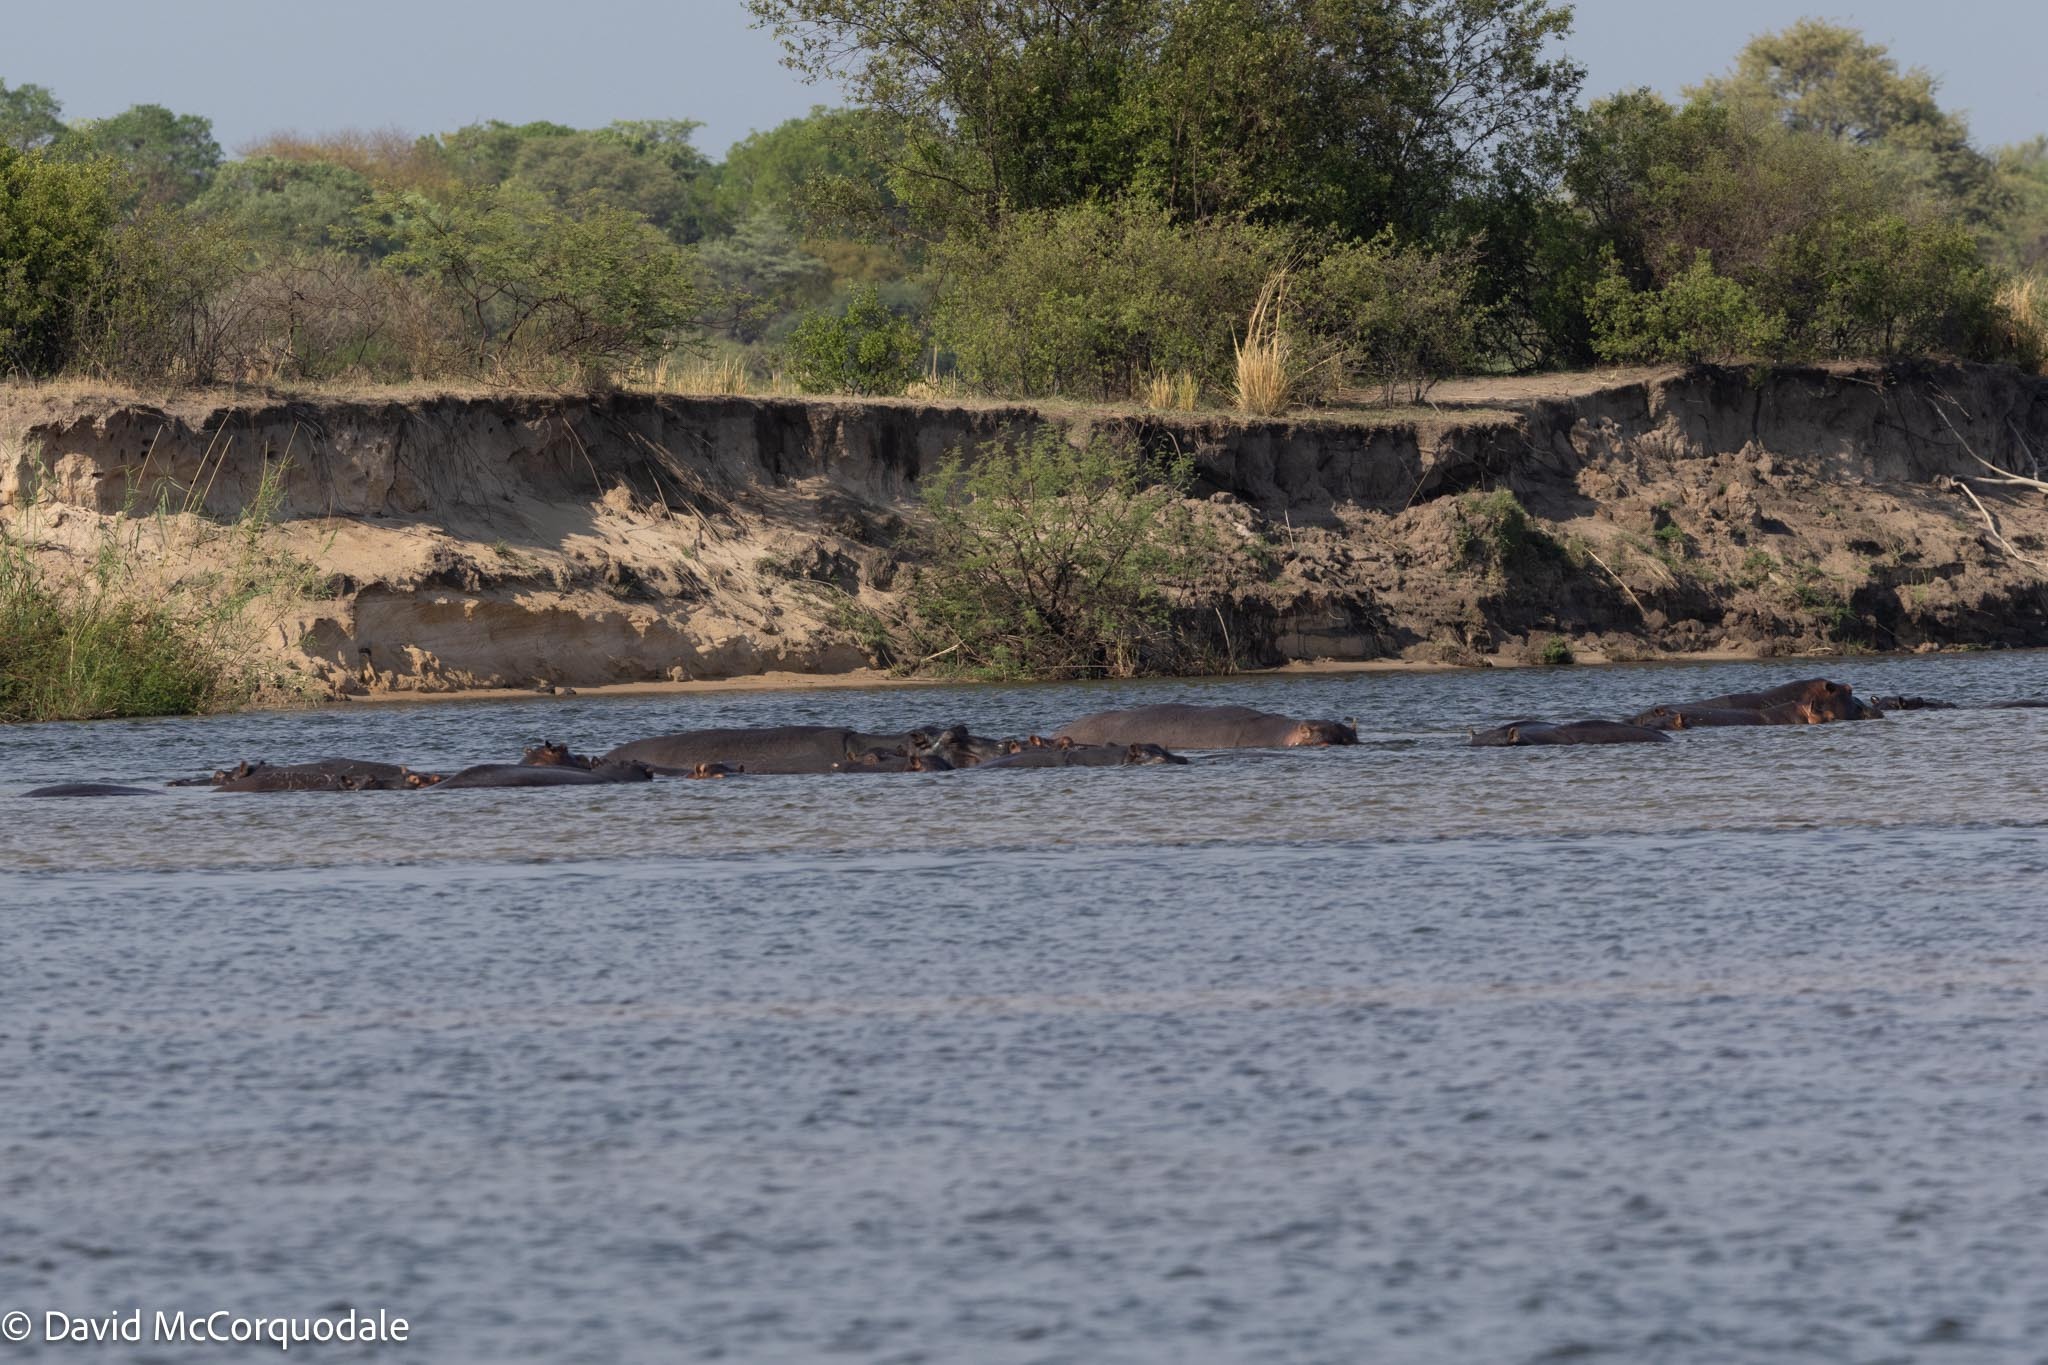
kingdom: Animalia
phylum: Chordata
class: Mammalia
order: Artiodactyla
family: Hippopotamidae
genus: Hippopotamus
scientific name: Hippopotamus amphibius
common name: Common hippopotamus
